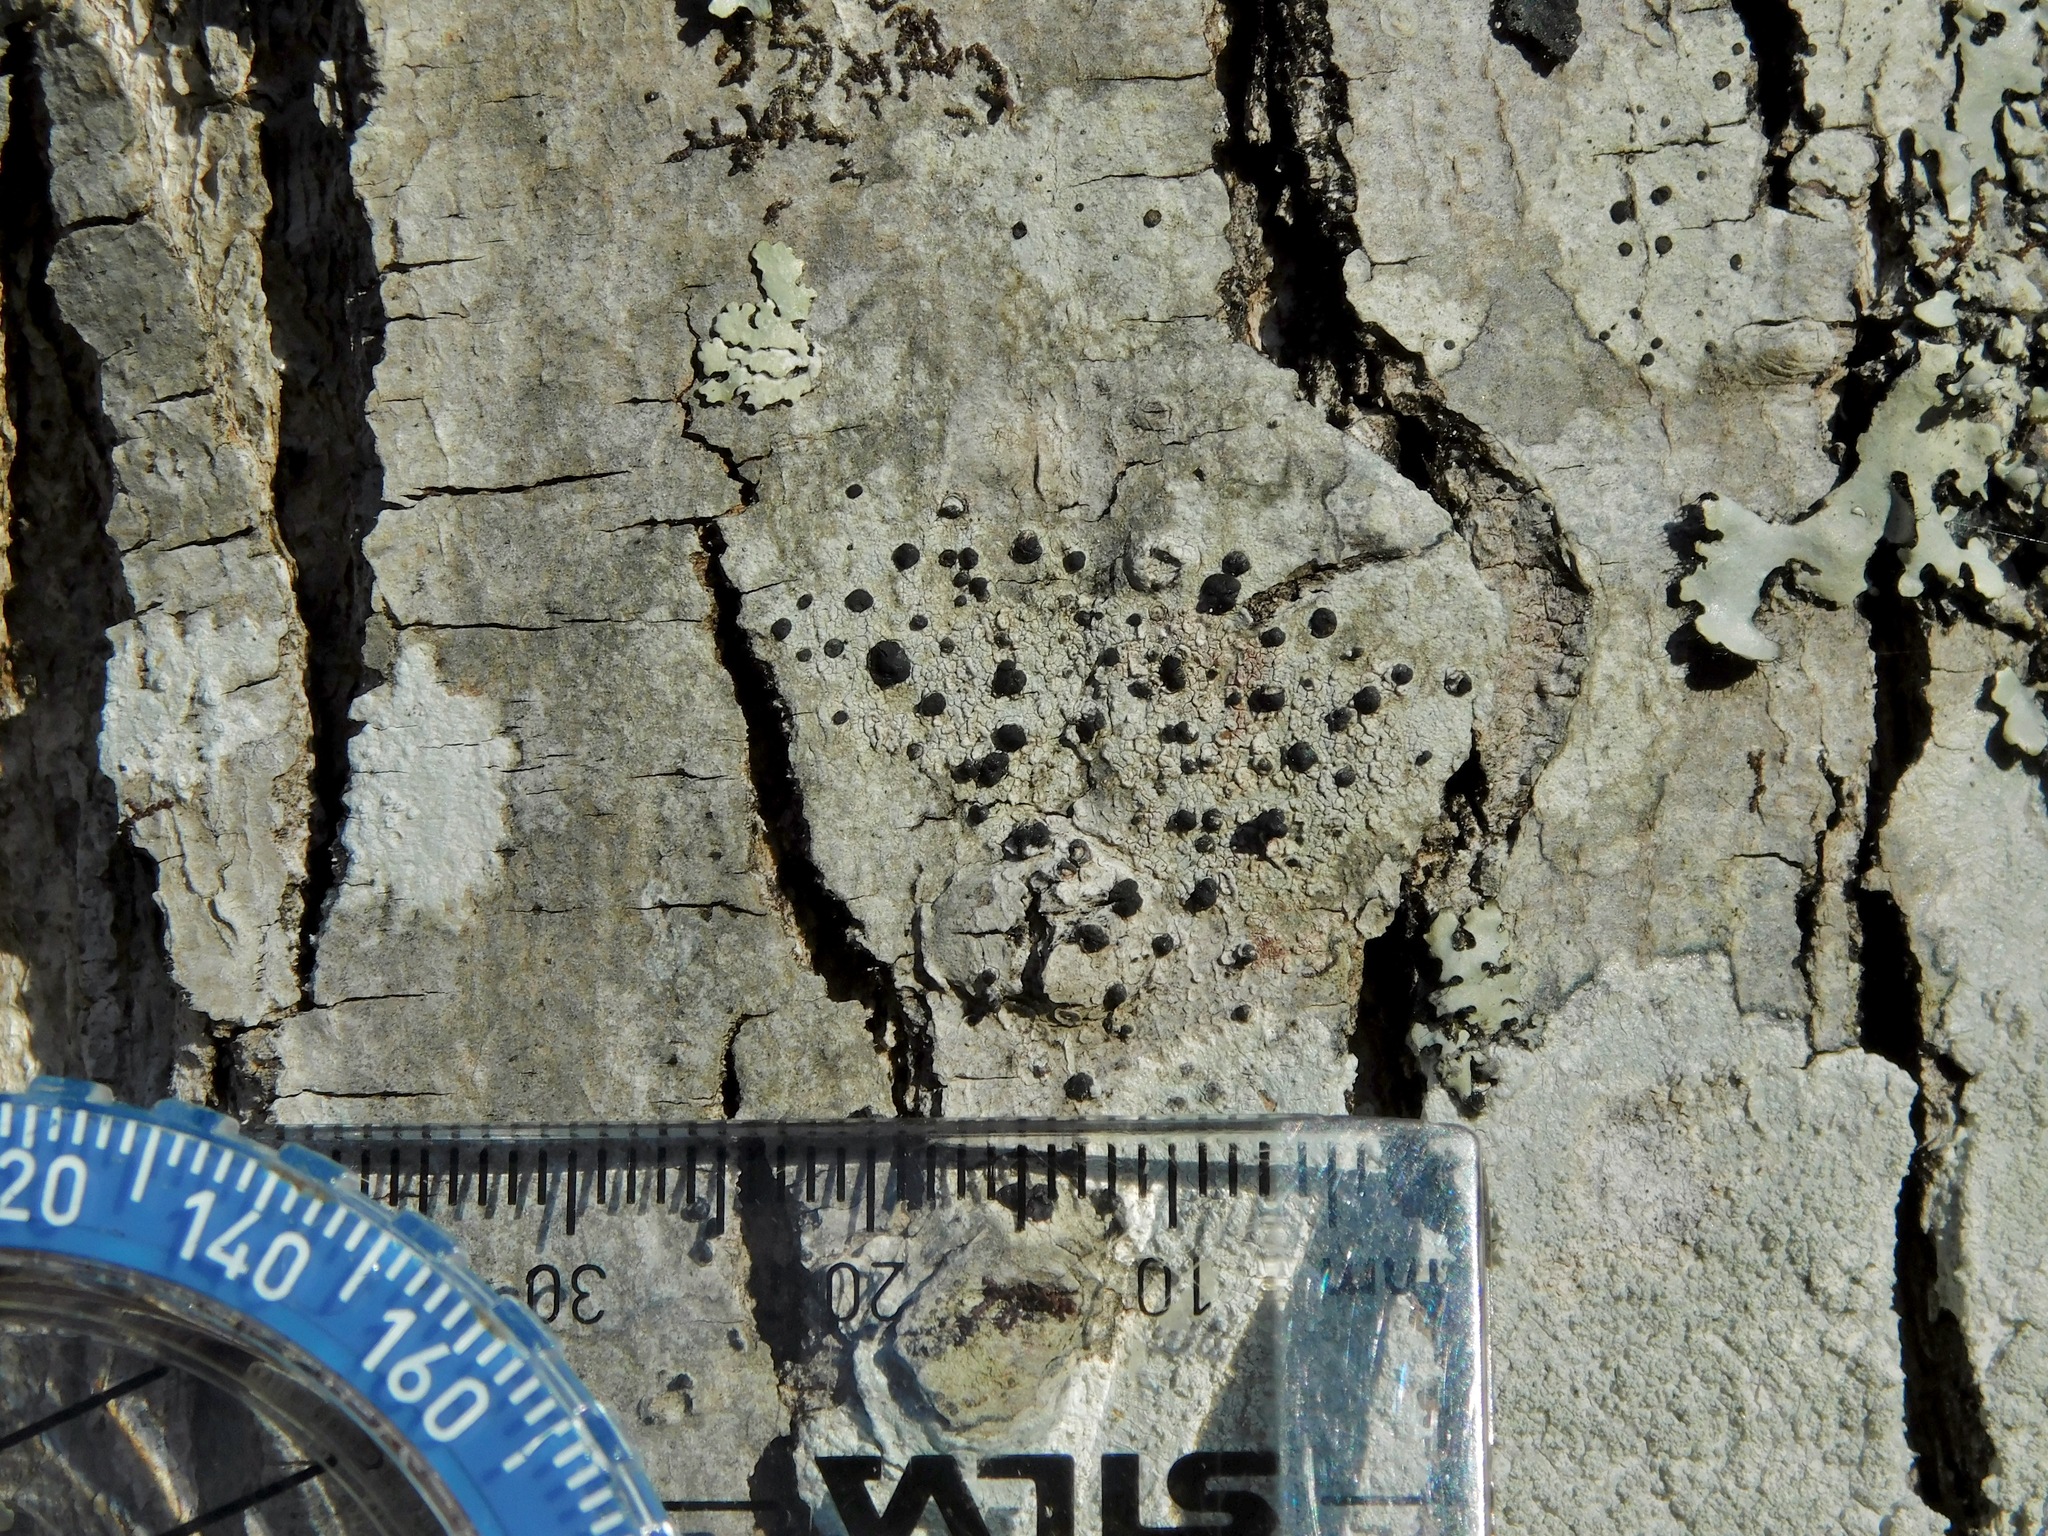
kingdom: Fungi
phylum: Ascomycota
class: Lecanoromycetes
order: Lecanorales
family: Lecanoraceae
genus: Lecidella
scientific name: Lecidella elaeochroma
